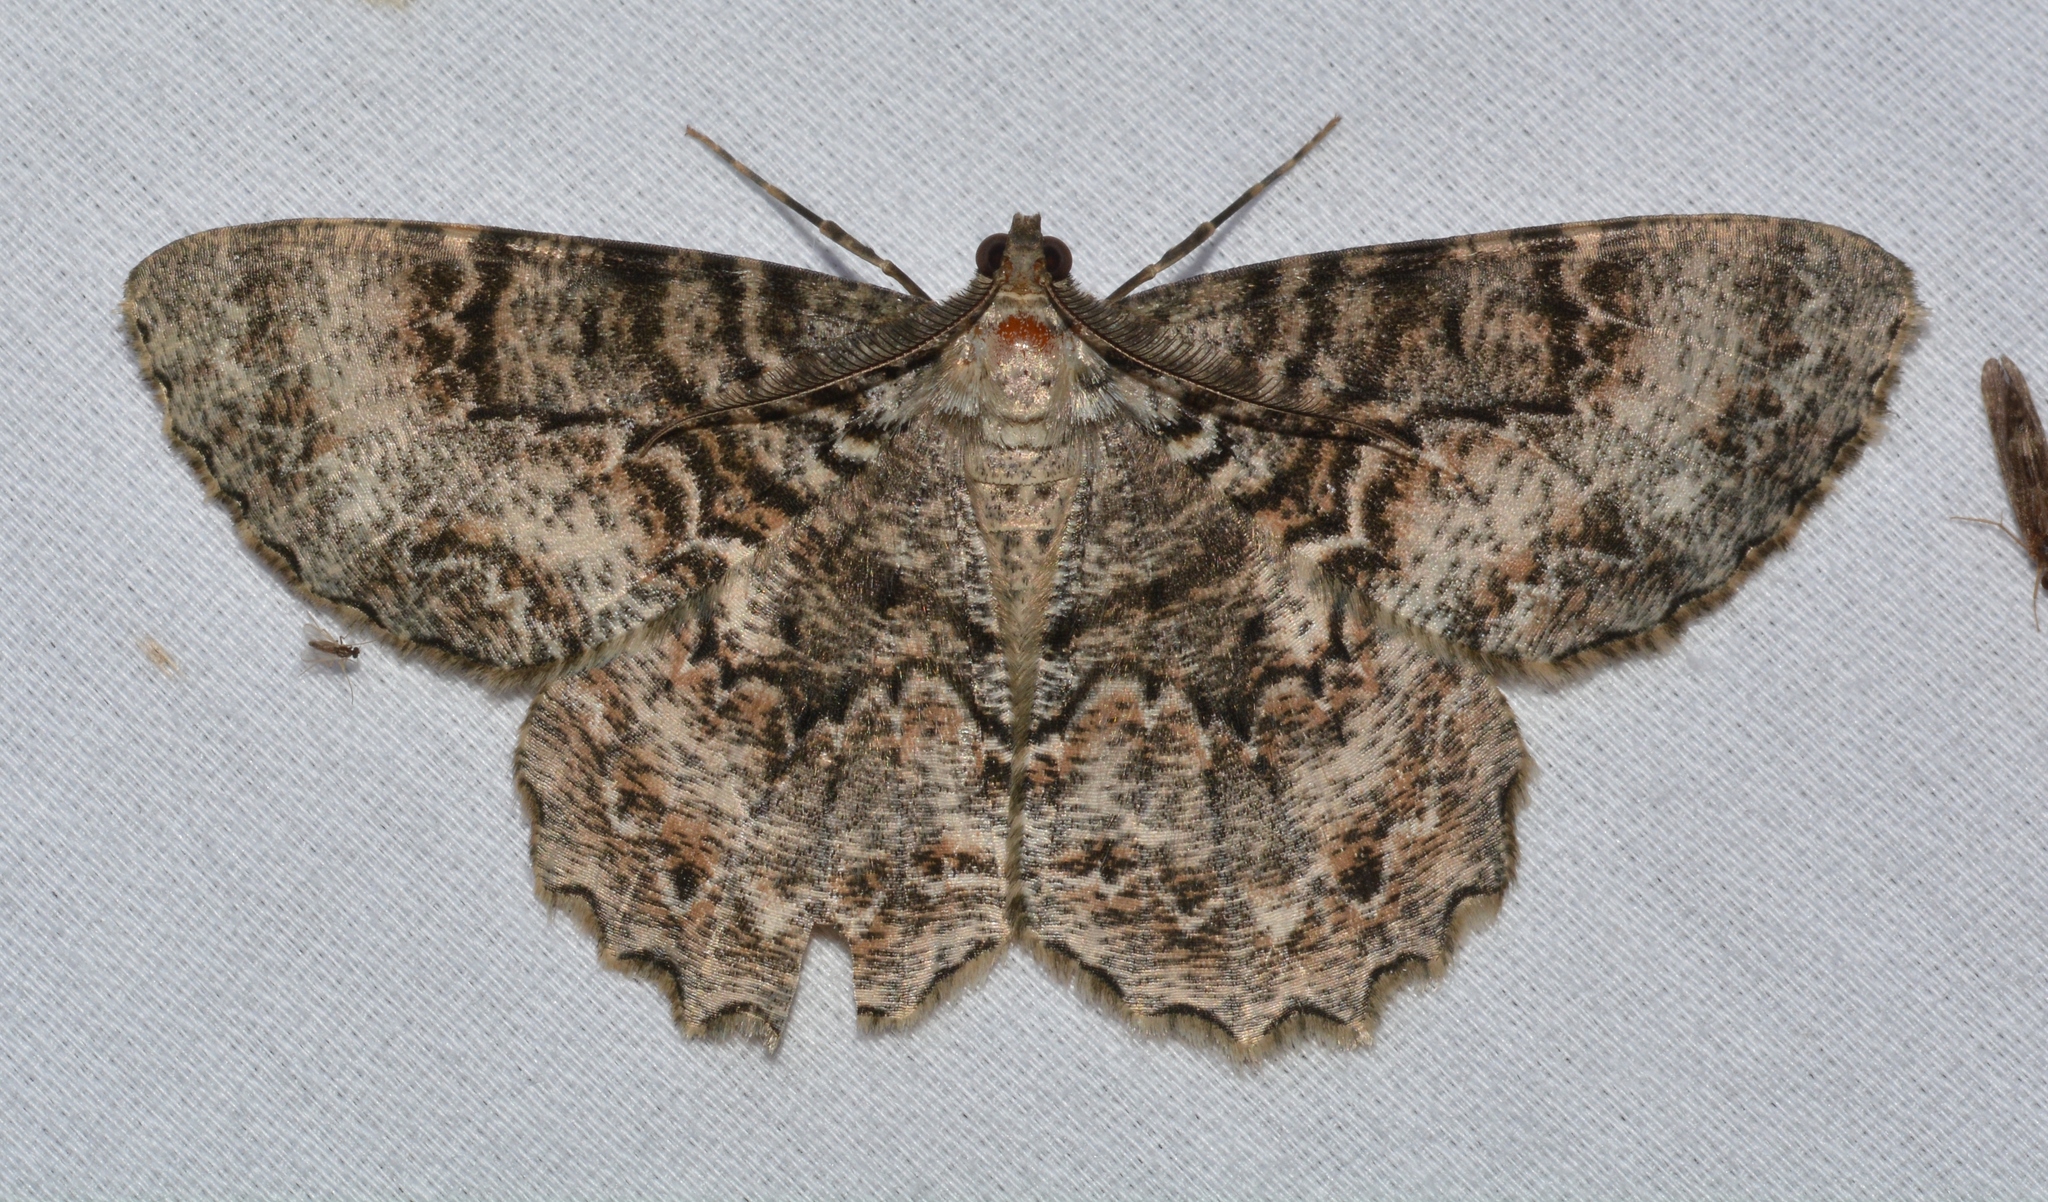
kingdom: Animalia
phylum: Arthropoda
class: Insecta
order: Lepidoptera
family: Geometridae
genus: Epimecis
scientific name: Epimecis hortaria
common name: Tulip-tree beauty
